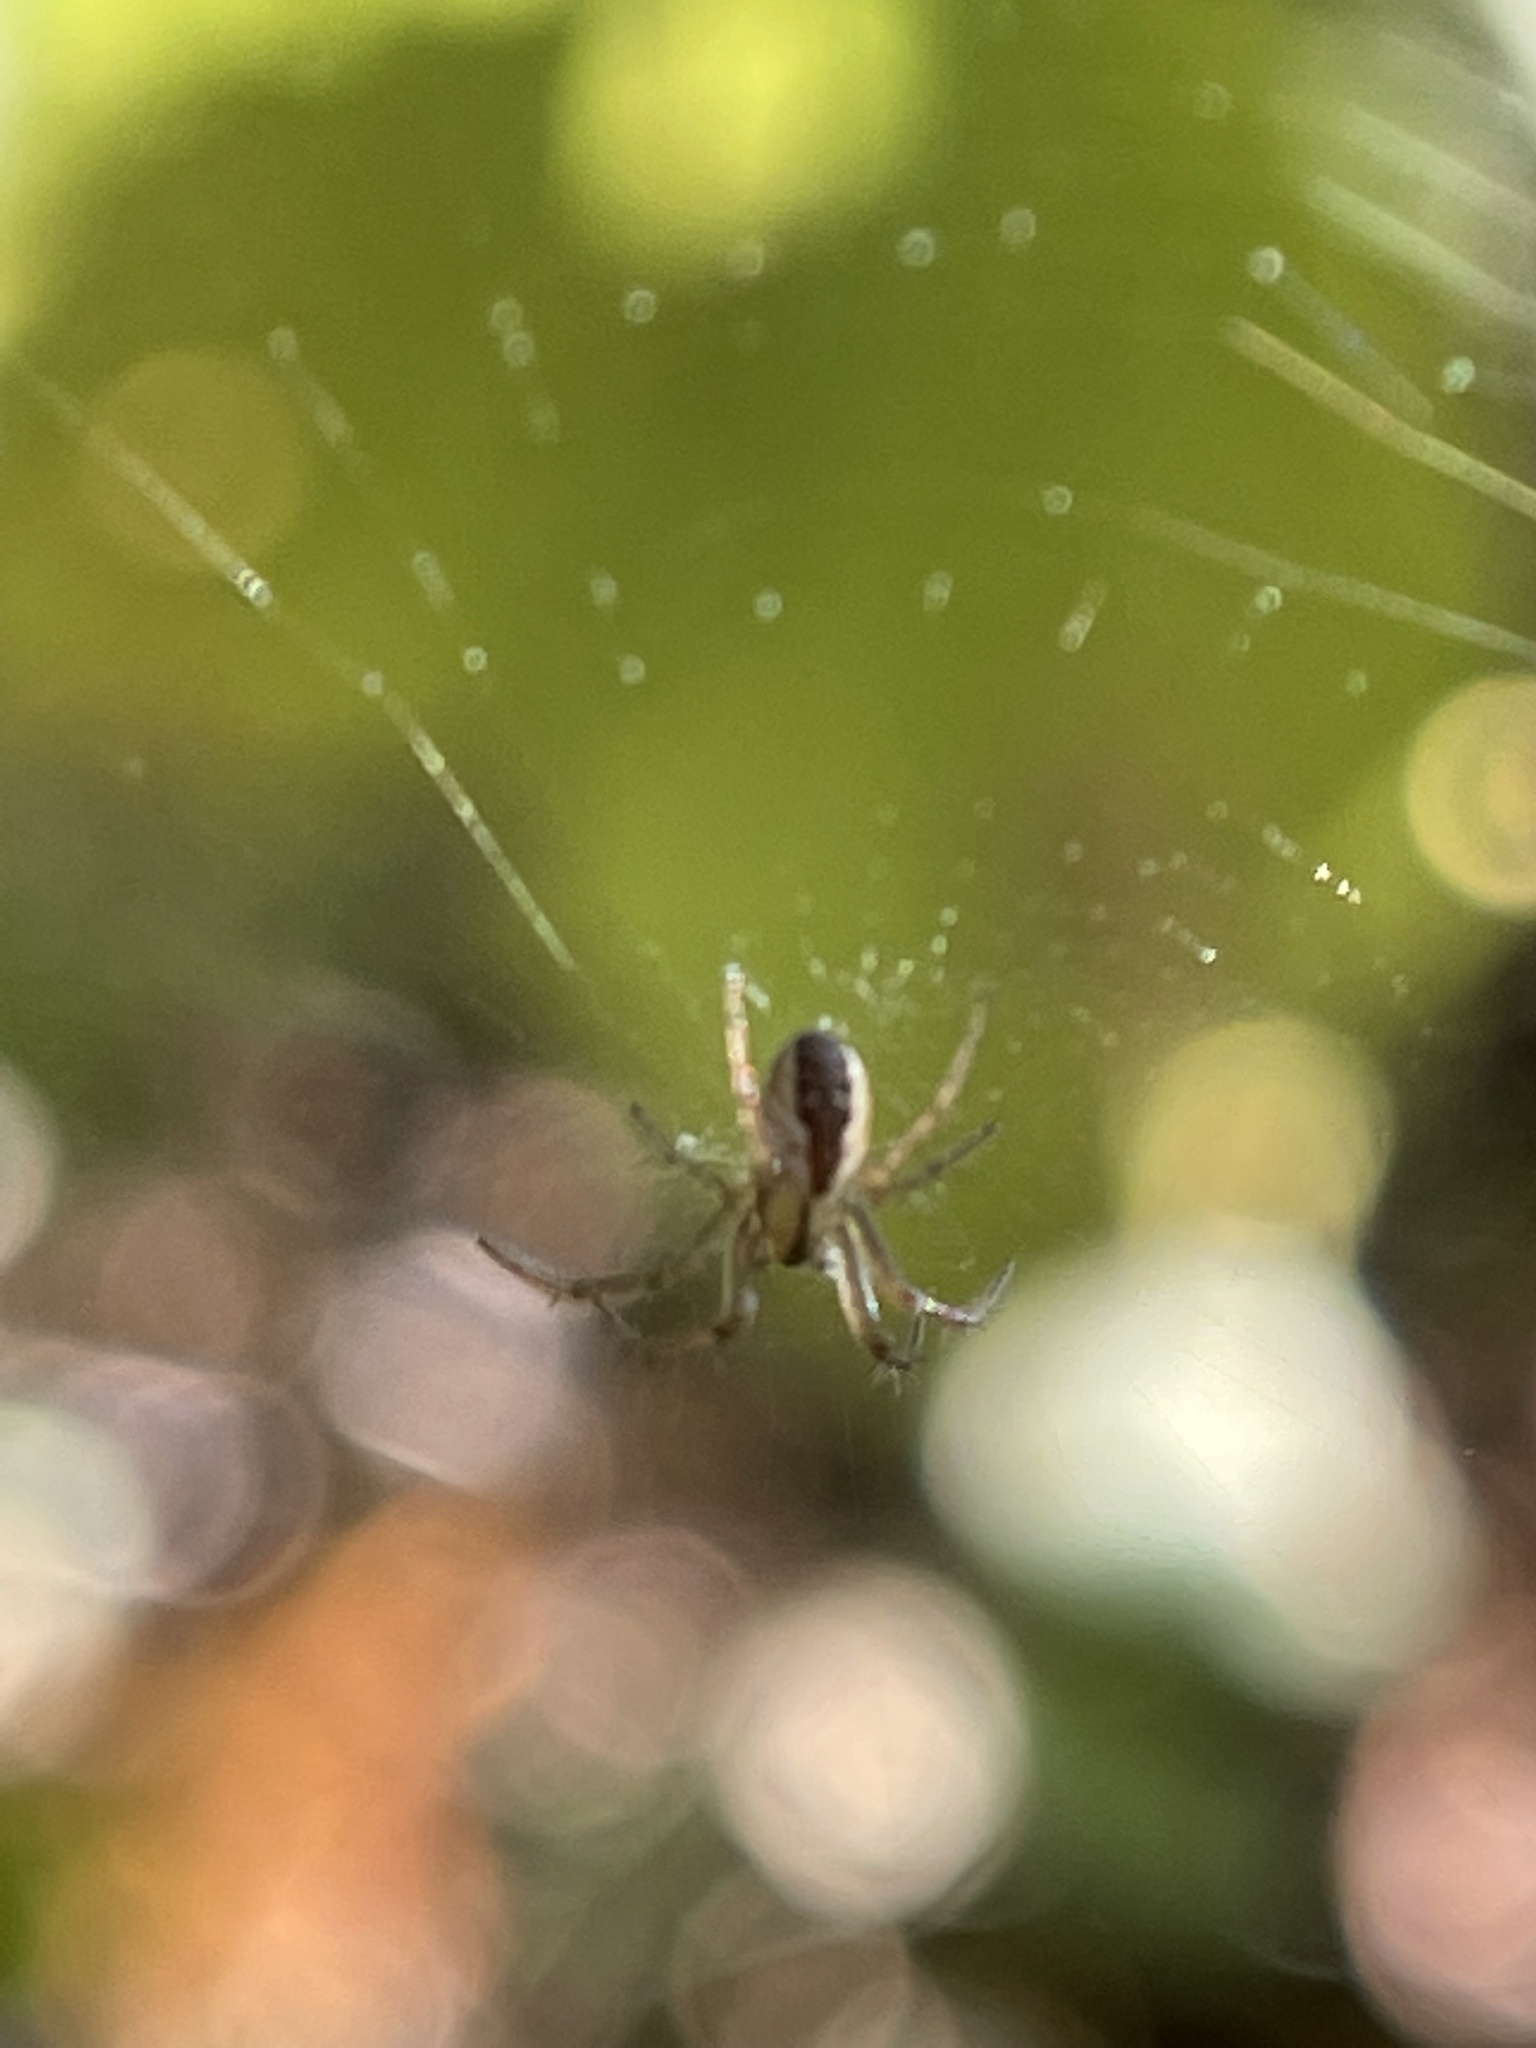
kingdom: Animalia
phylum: Arthropoda
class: Arachnida
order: Araneae
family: Araneidae
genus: Mangora
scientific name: Mangora placida
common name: Tuft-legged orbweaver
